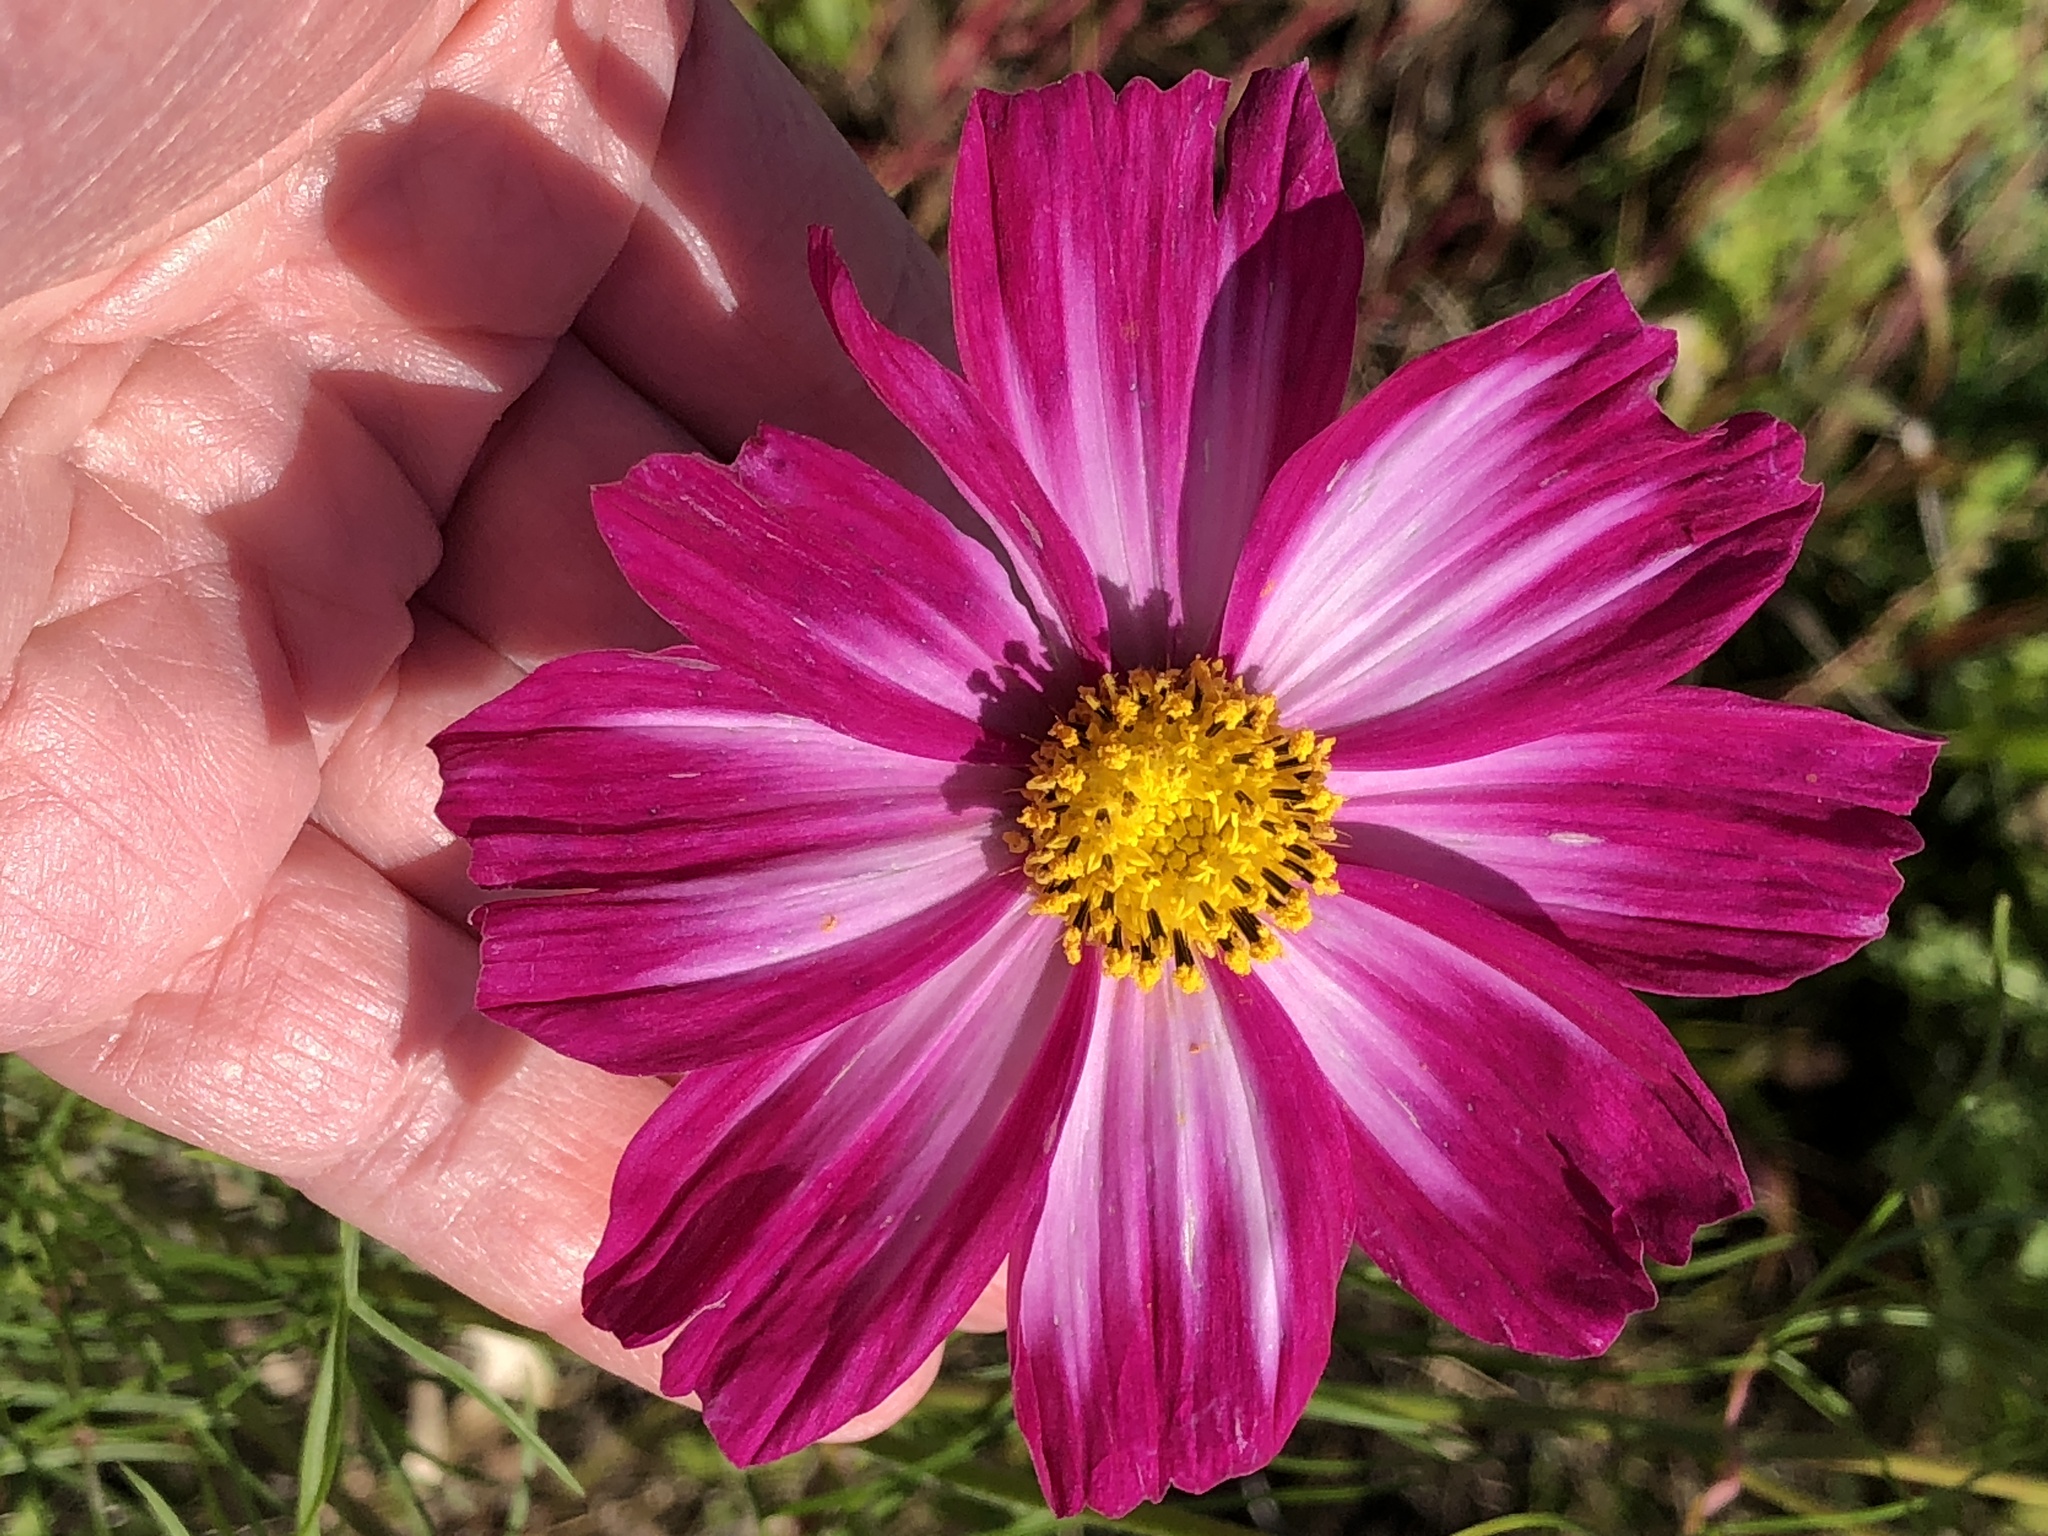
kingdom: Plantae
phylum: Tracheophyta
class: Magnoliopsida
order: Asterales
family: Asteraceae
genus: Cosmos
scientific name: Cosmos bipinnatus
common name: Garden cosmos
